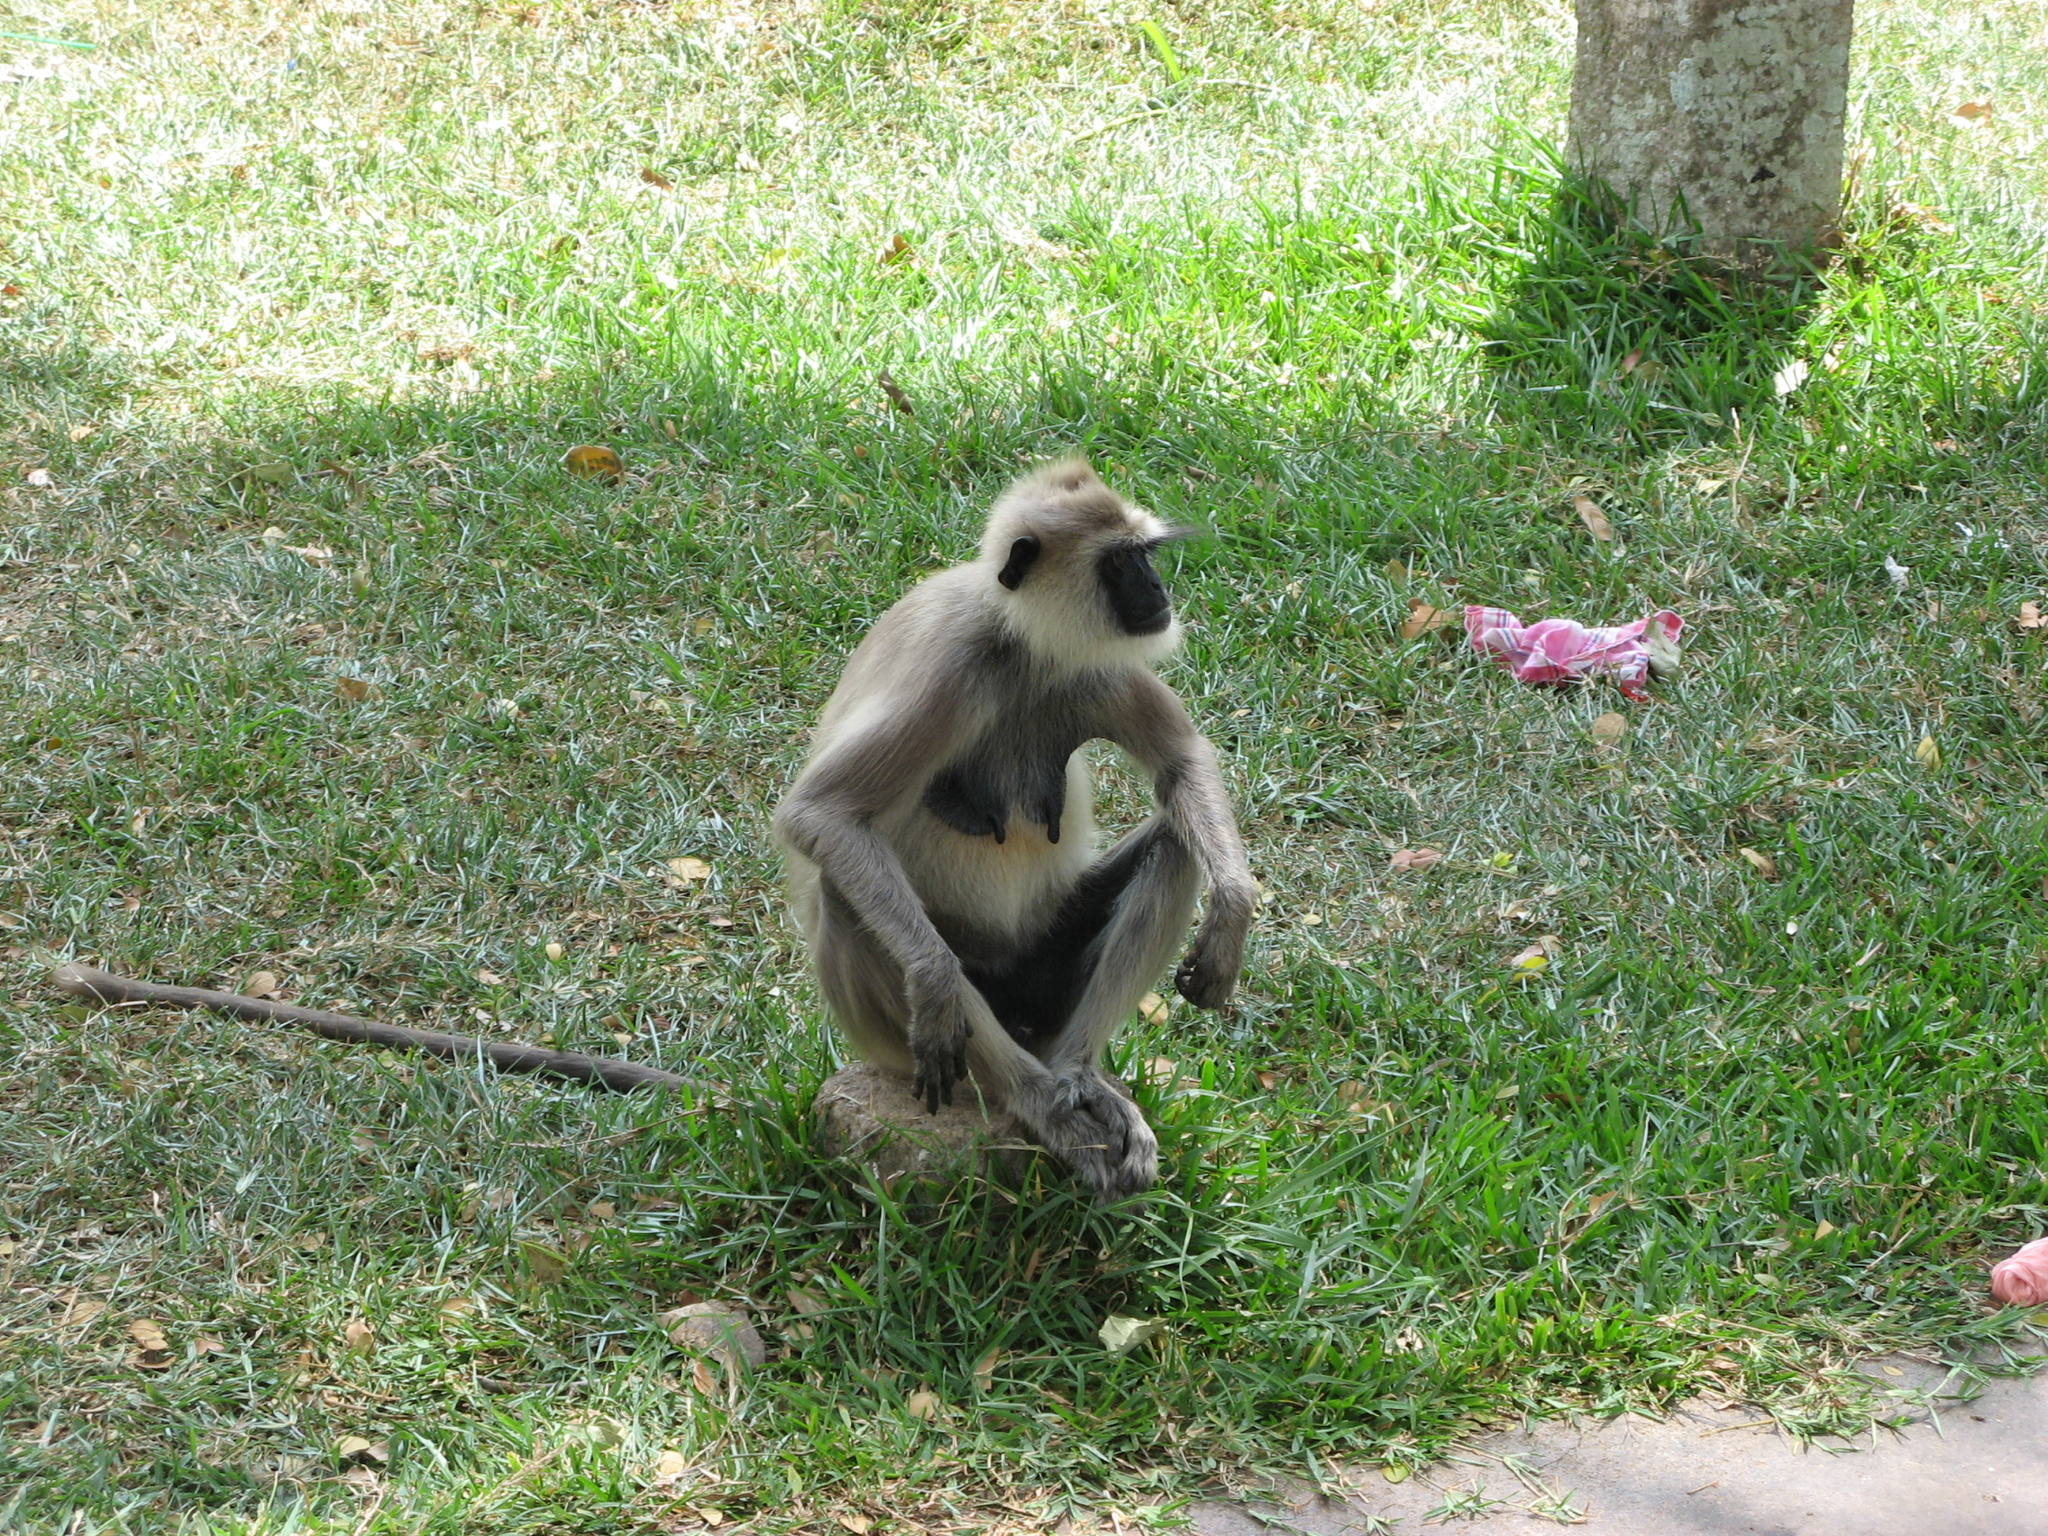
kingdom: Animalia
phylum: Chordata
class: Mammalia
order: Primates
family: Cercopithecidae
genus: Semnopithecus
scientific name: Semnopithecus priam
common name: Tufted gray langur
